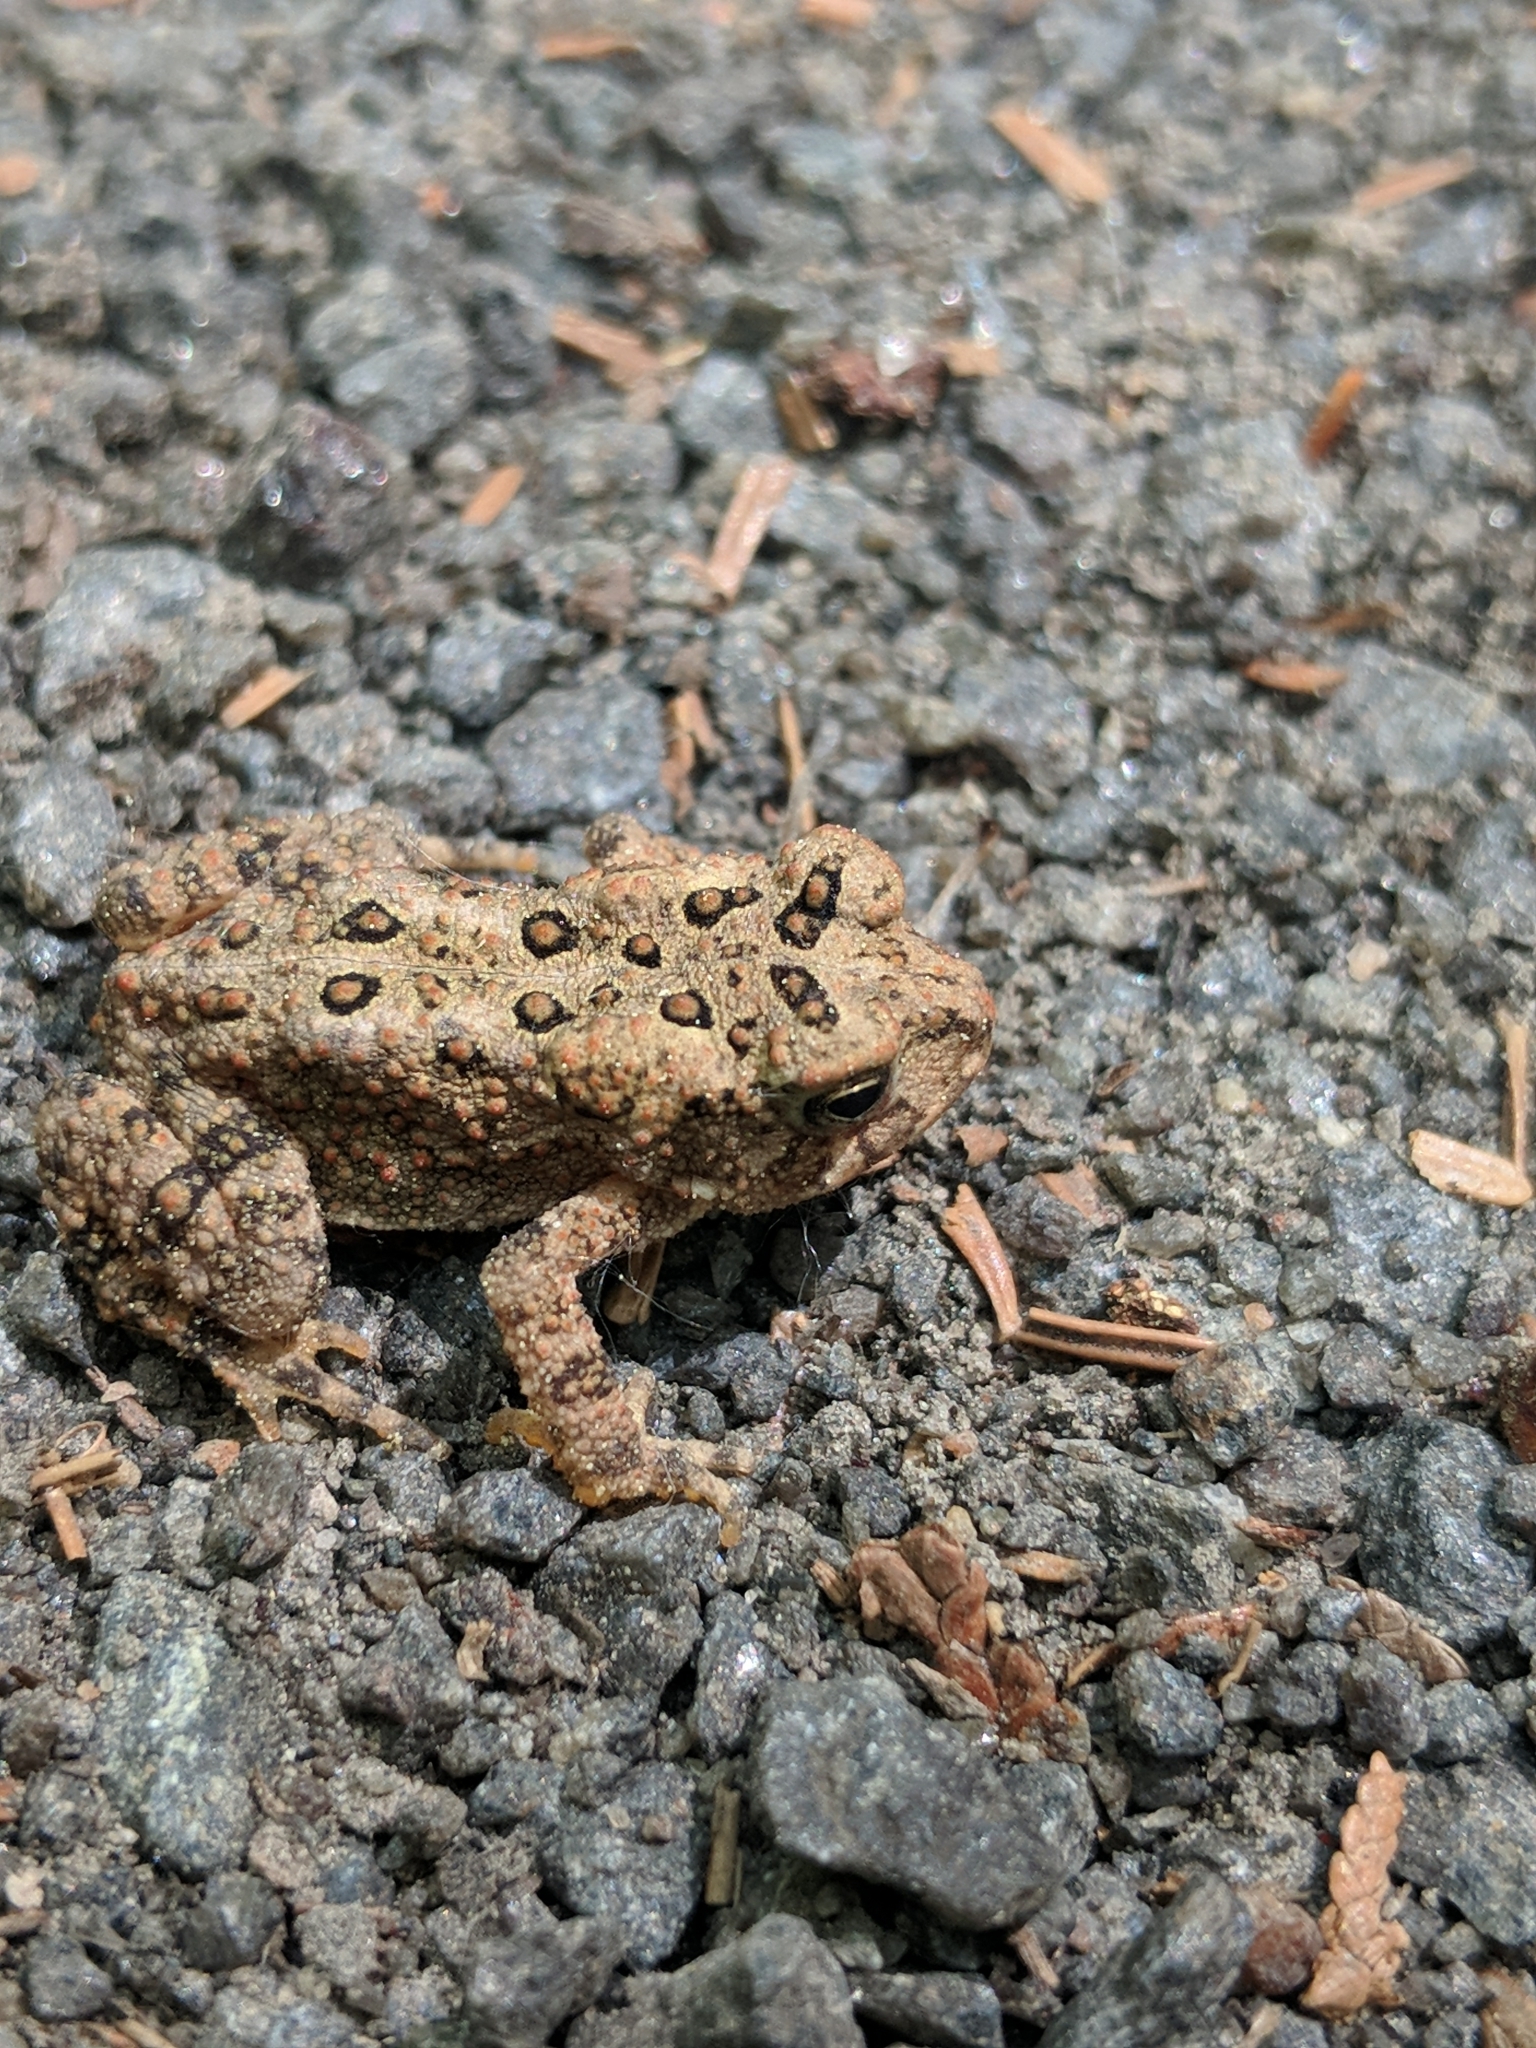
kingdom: Animalia
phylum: Chordata
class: Amphibia
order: Anura
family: Bufonidae
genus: Anaxyrus
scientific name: Anaxyrus americanus
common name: American toad
